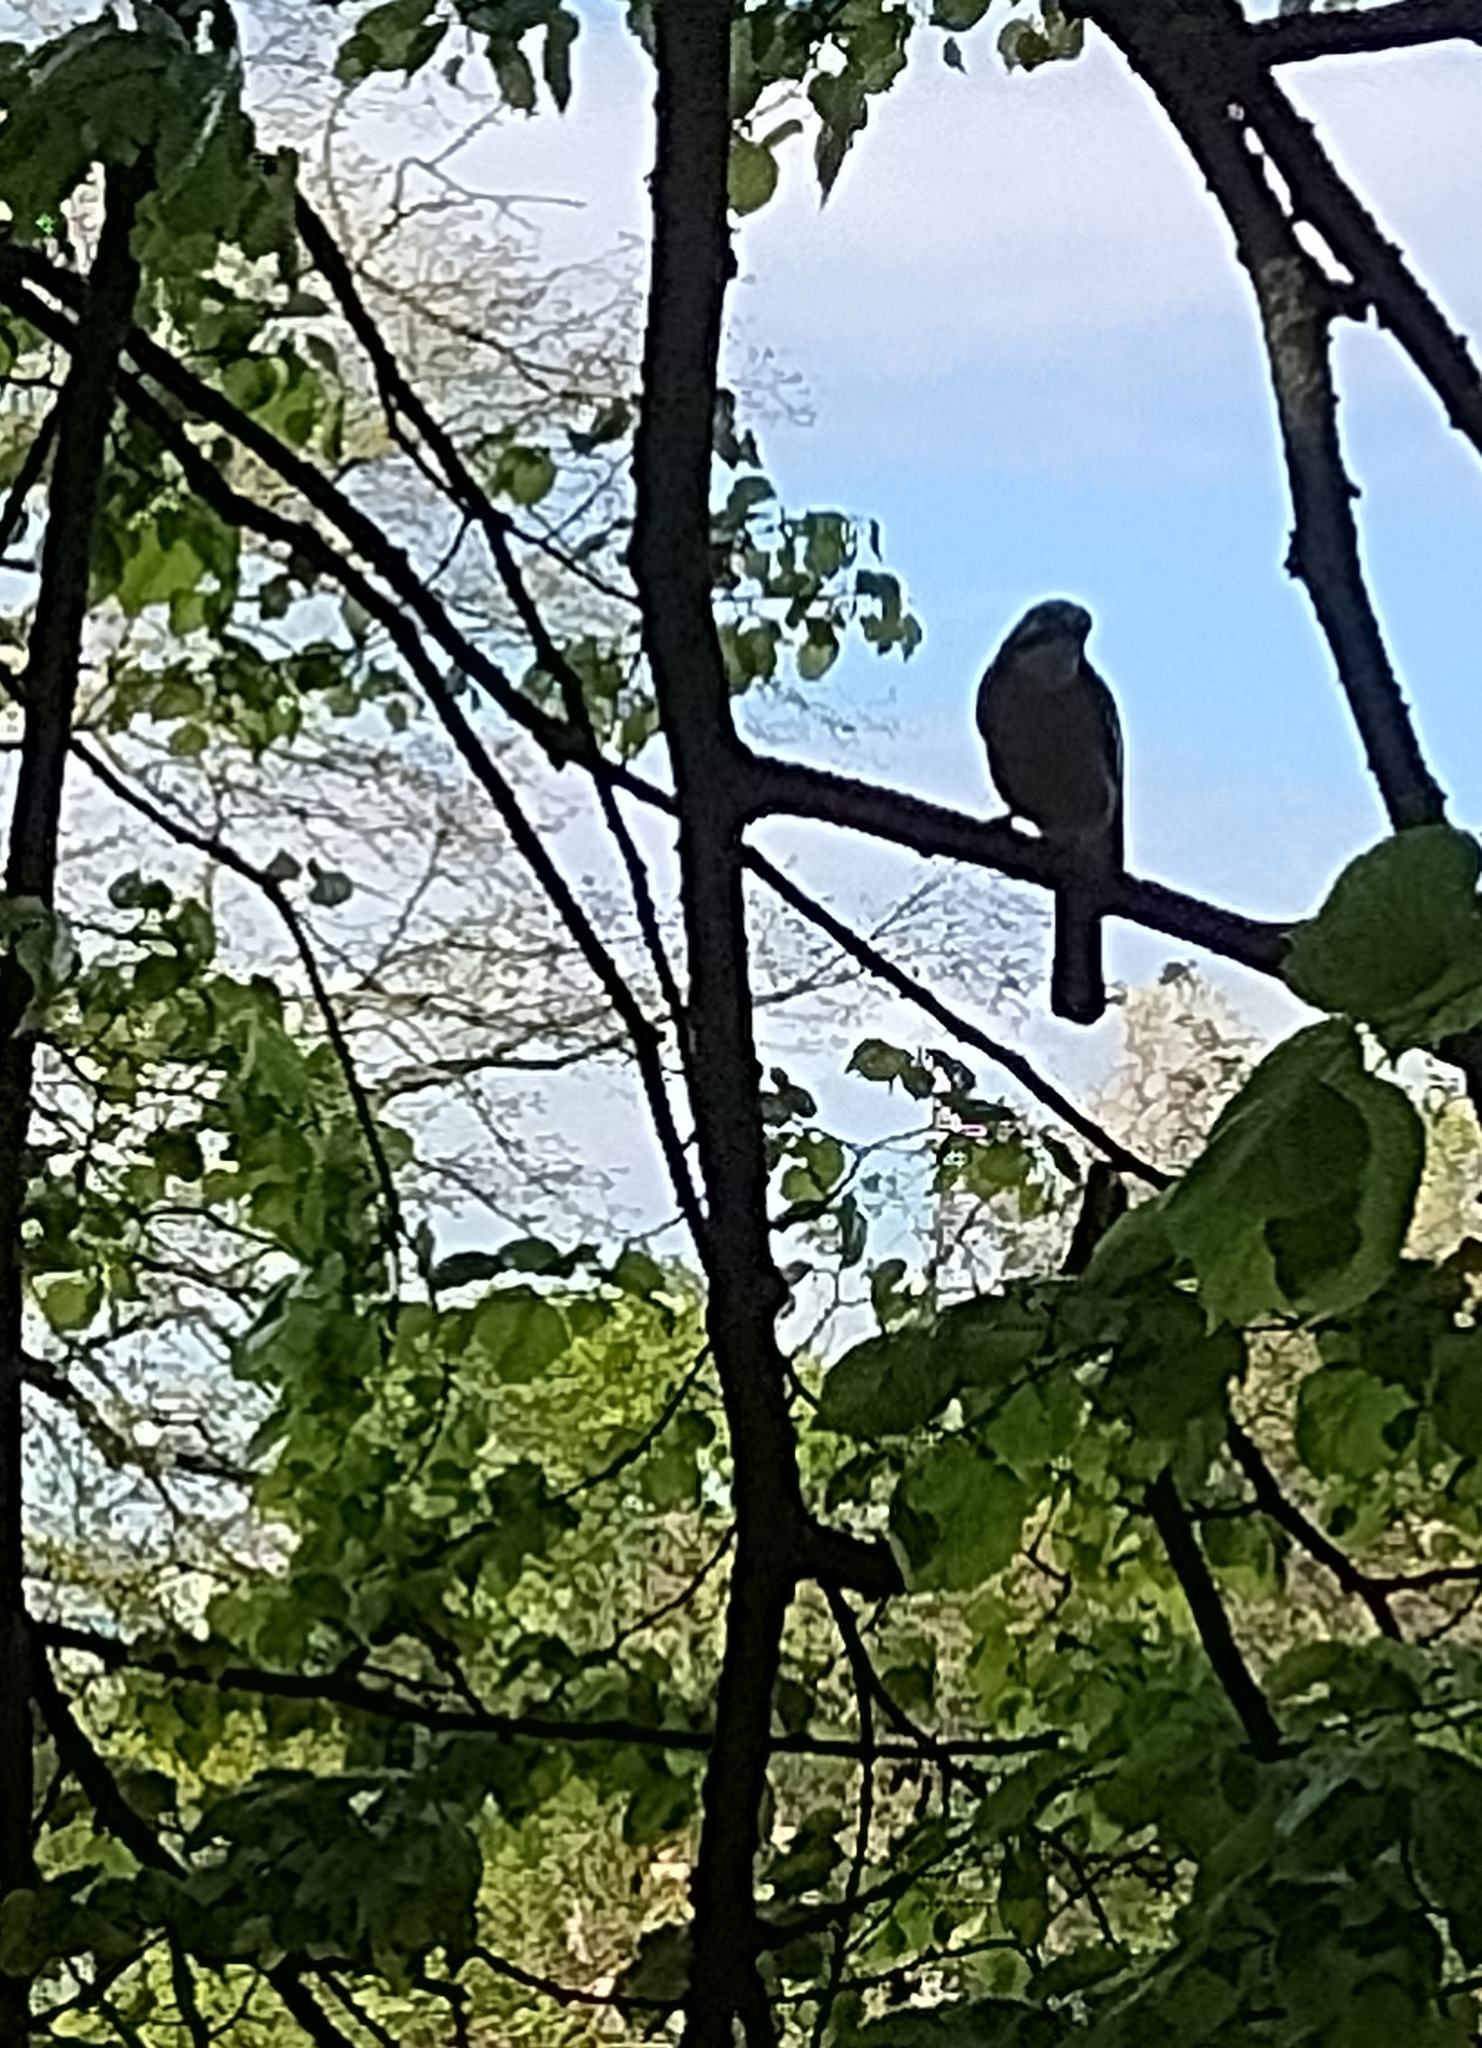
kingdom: Animalia
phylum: Chordata
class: Aves
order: Passeriformes
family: Corvidae
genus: Garrulus
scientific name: Garrulus glandarius
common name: Eurasian jay
